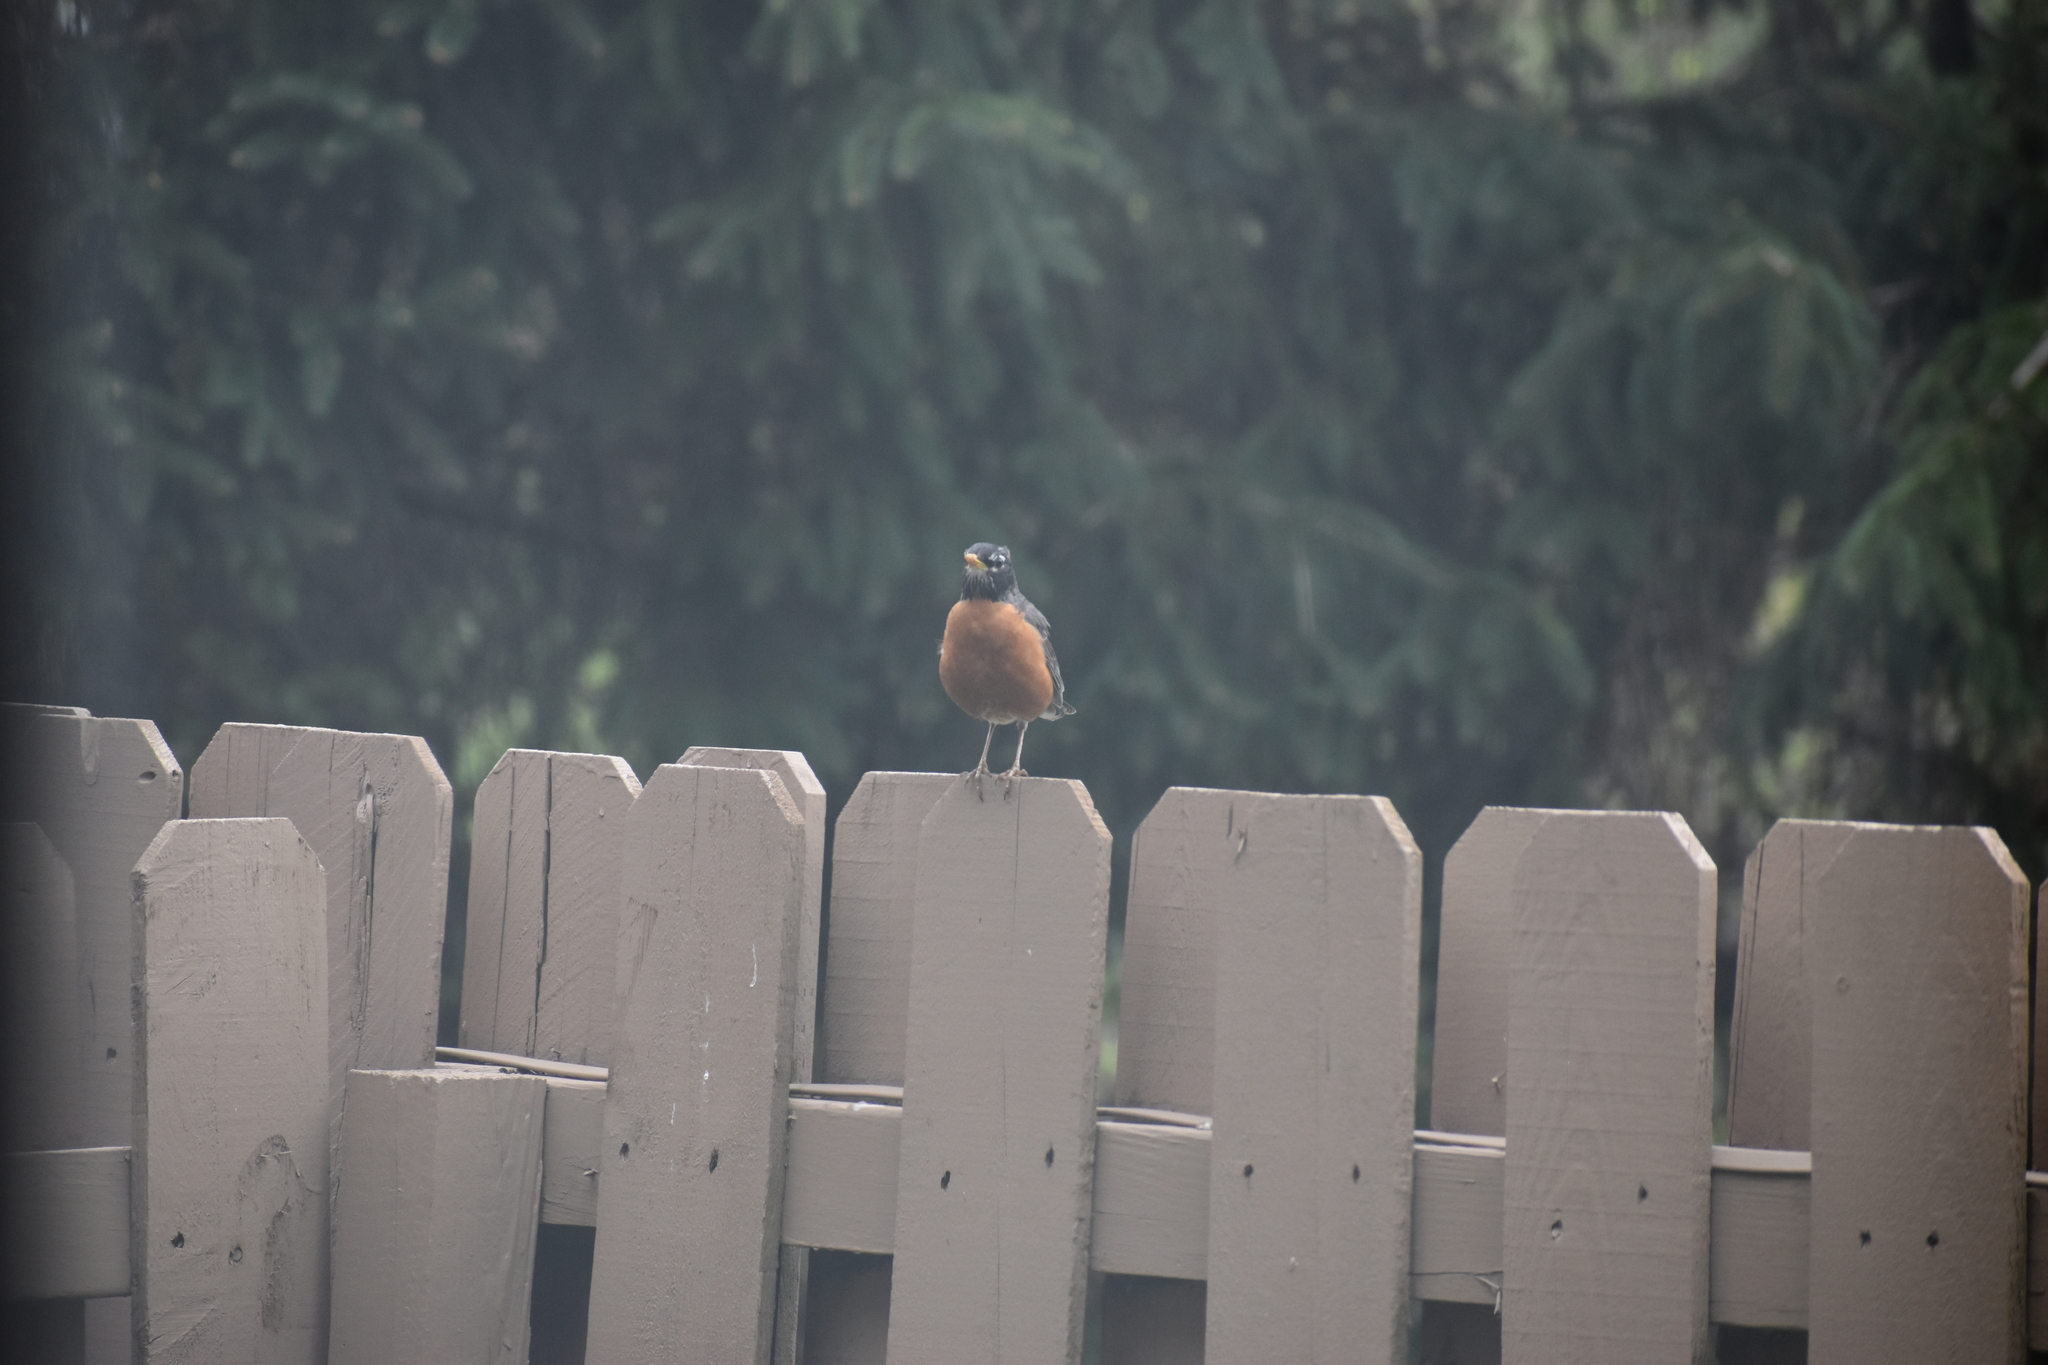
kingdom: Animalia
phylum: Chordata
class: Aves
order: Passeriformes
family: Turdidae
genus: Turdus
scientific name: Turdus migratorius
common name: American robin
